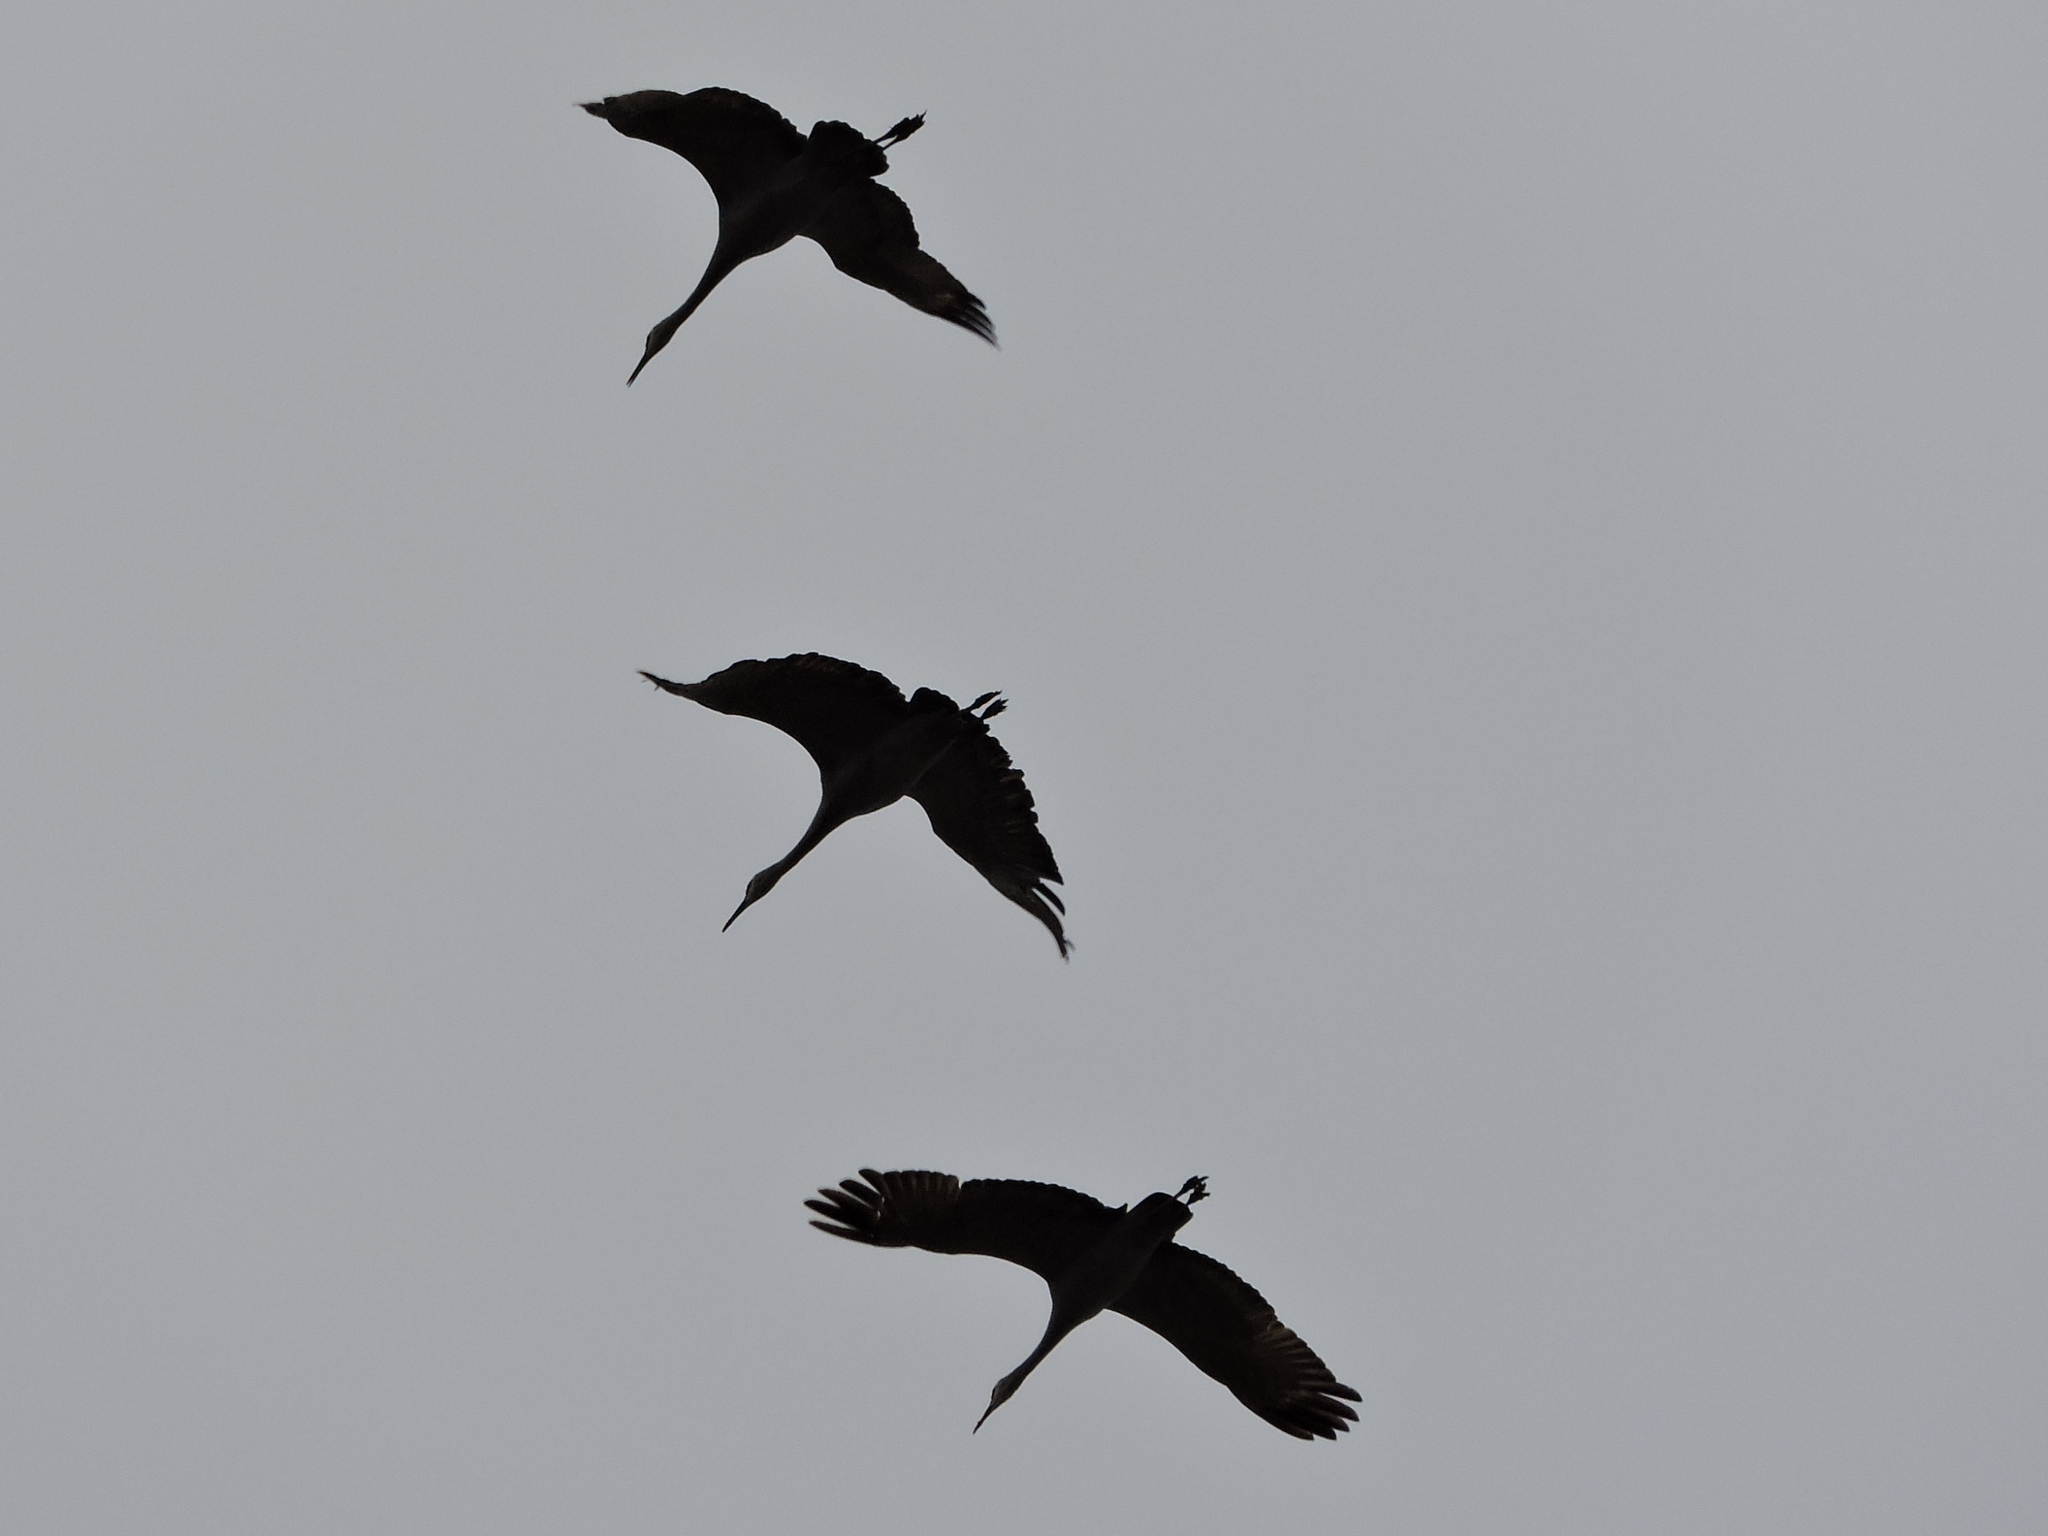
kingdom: Animalia
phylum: Chordata
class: Aves
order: Gruiformes
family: Gruidae
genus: Grus
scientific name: Grus canadensis
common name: Sandhill crane
